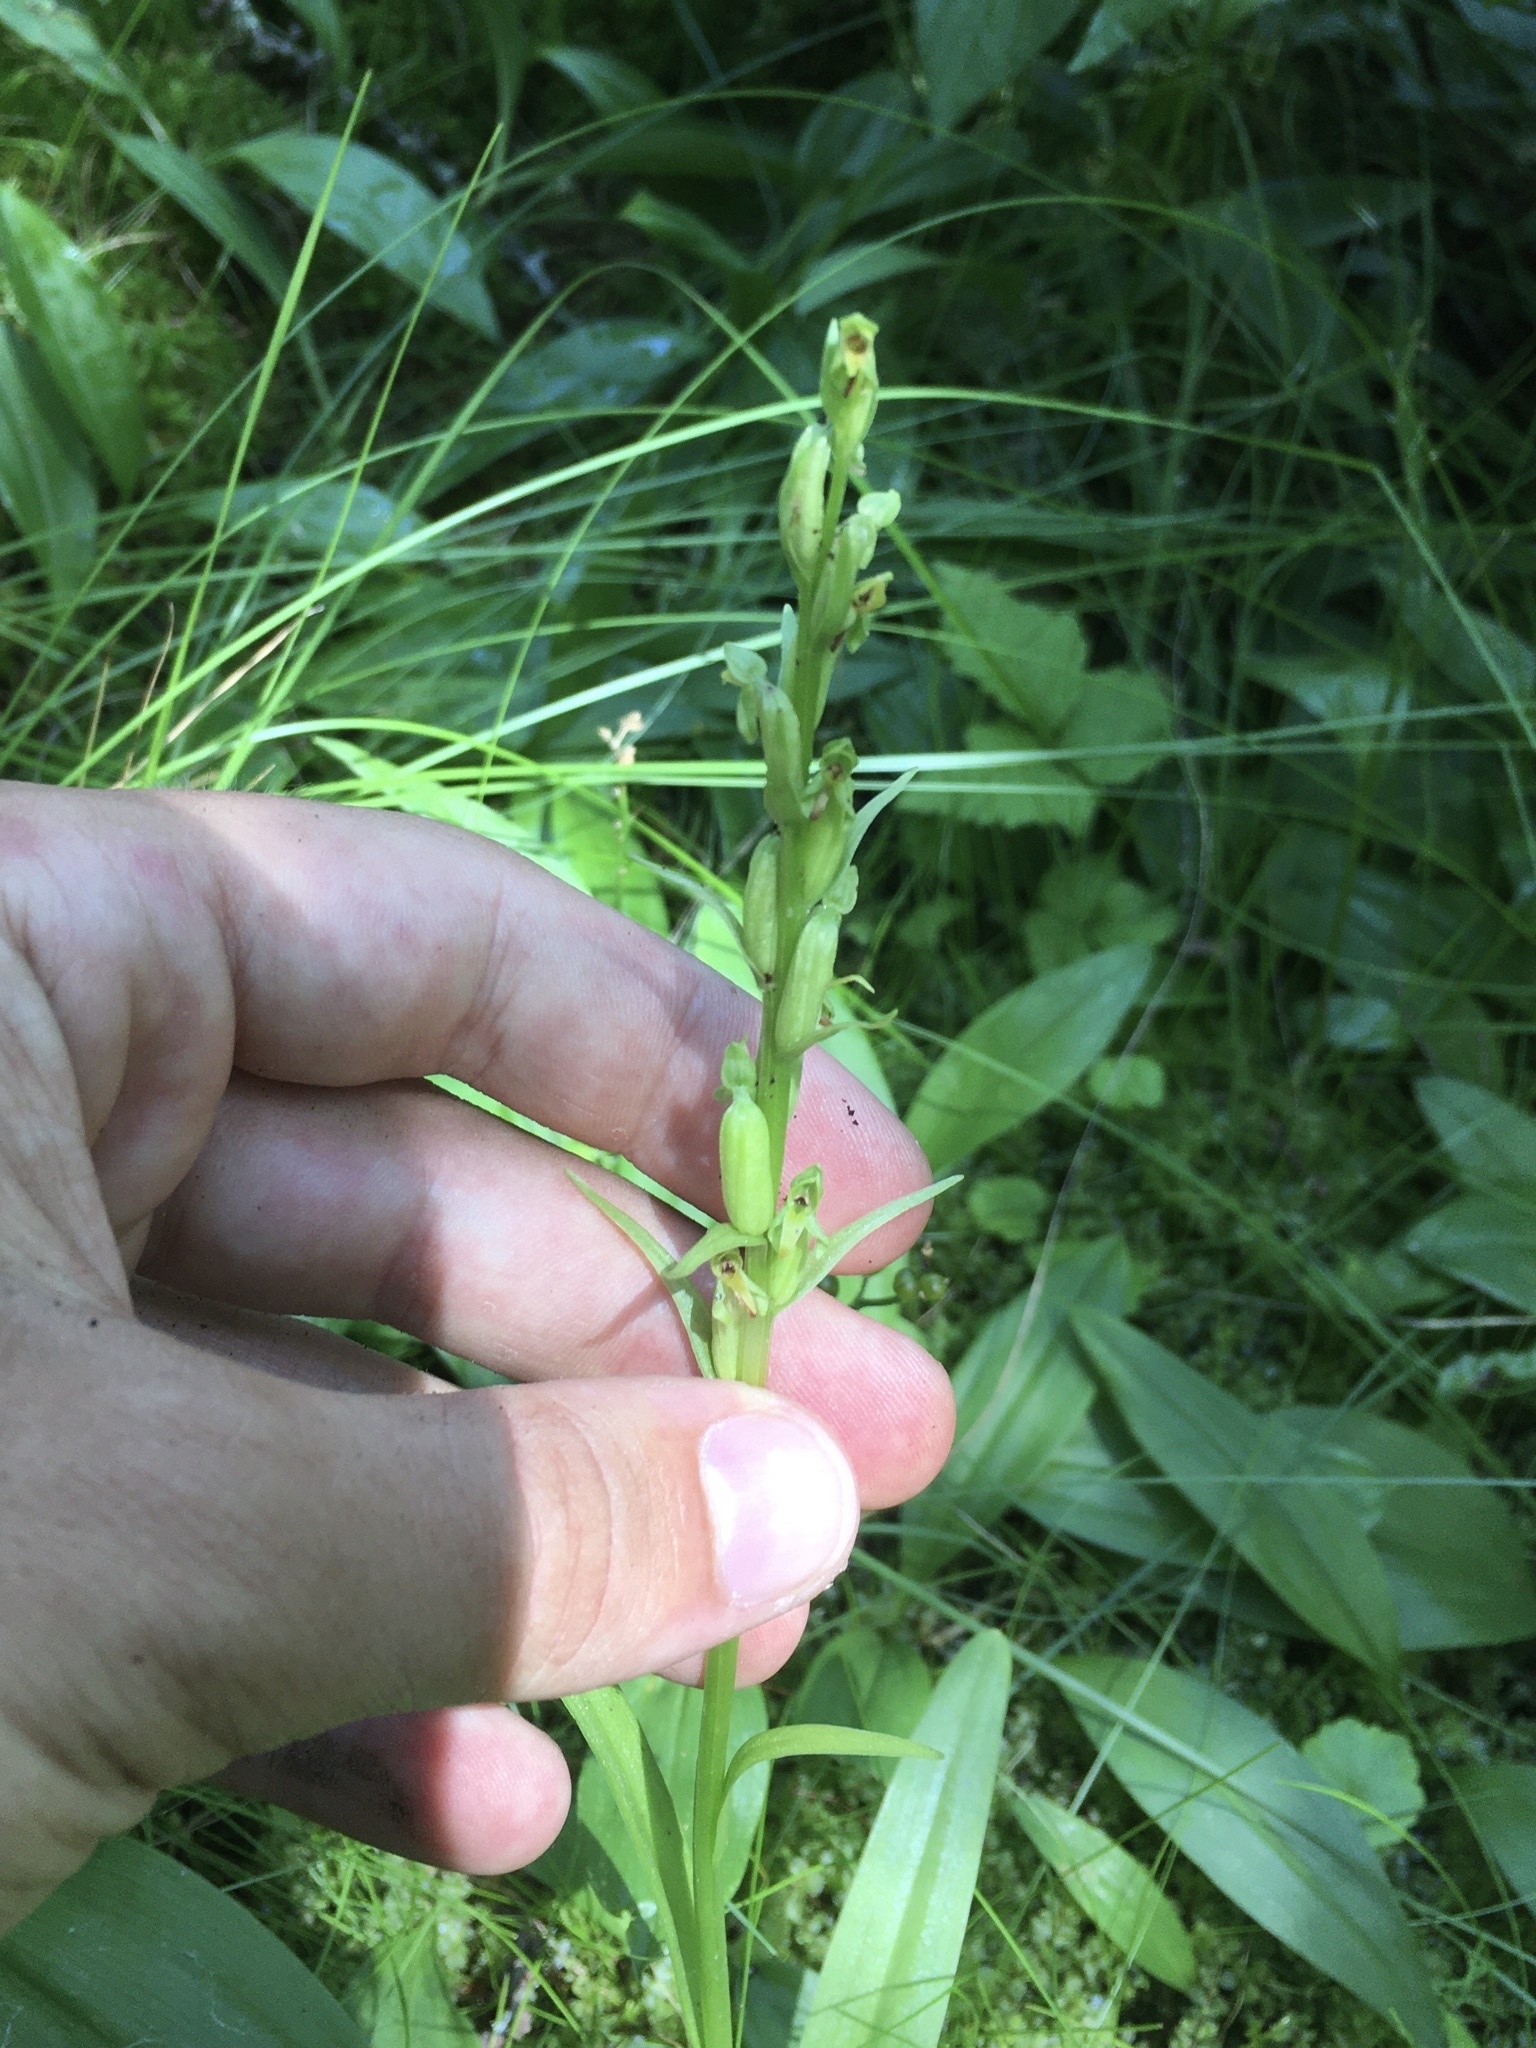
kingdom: Plantae
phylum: Tracheophyta
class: Liliopsida
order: Asparagales
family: Orchidaceae
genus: Platanthera
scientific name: Platanthera aquilonis
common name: Northern green orchid
